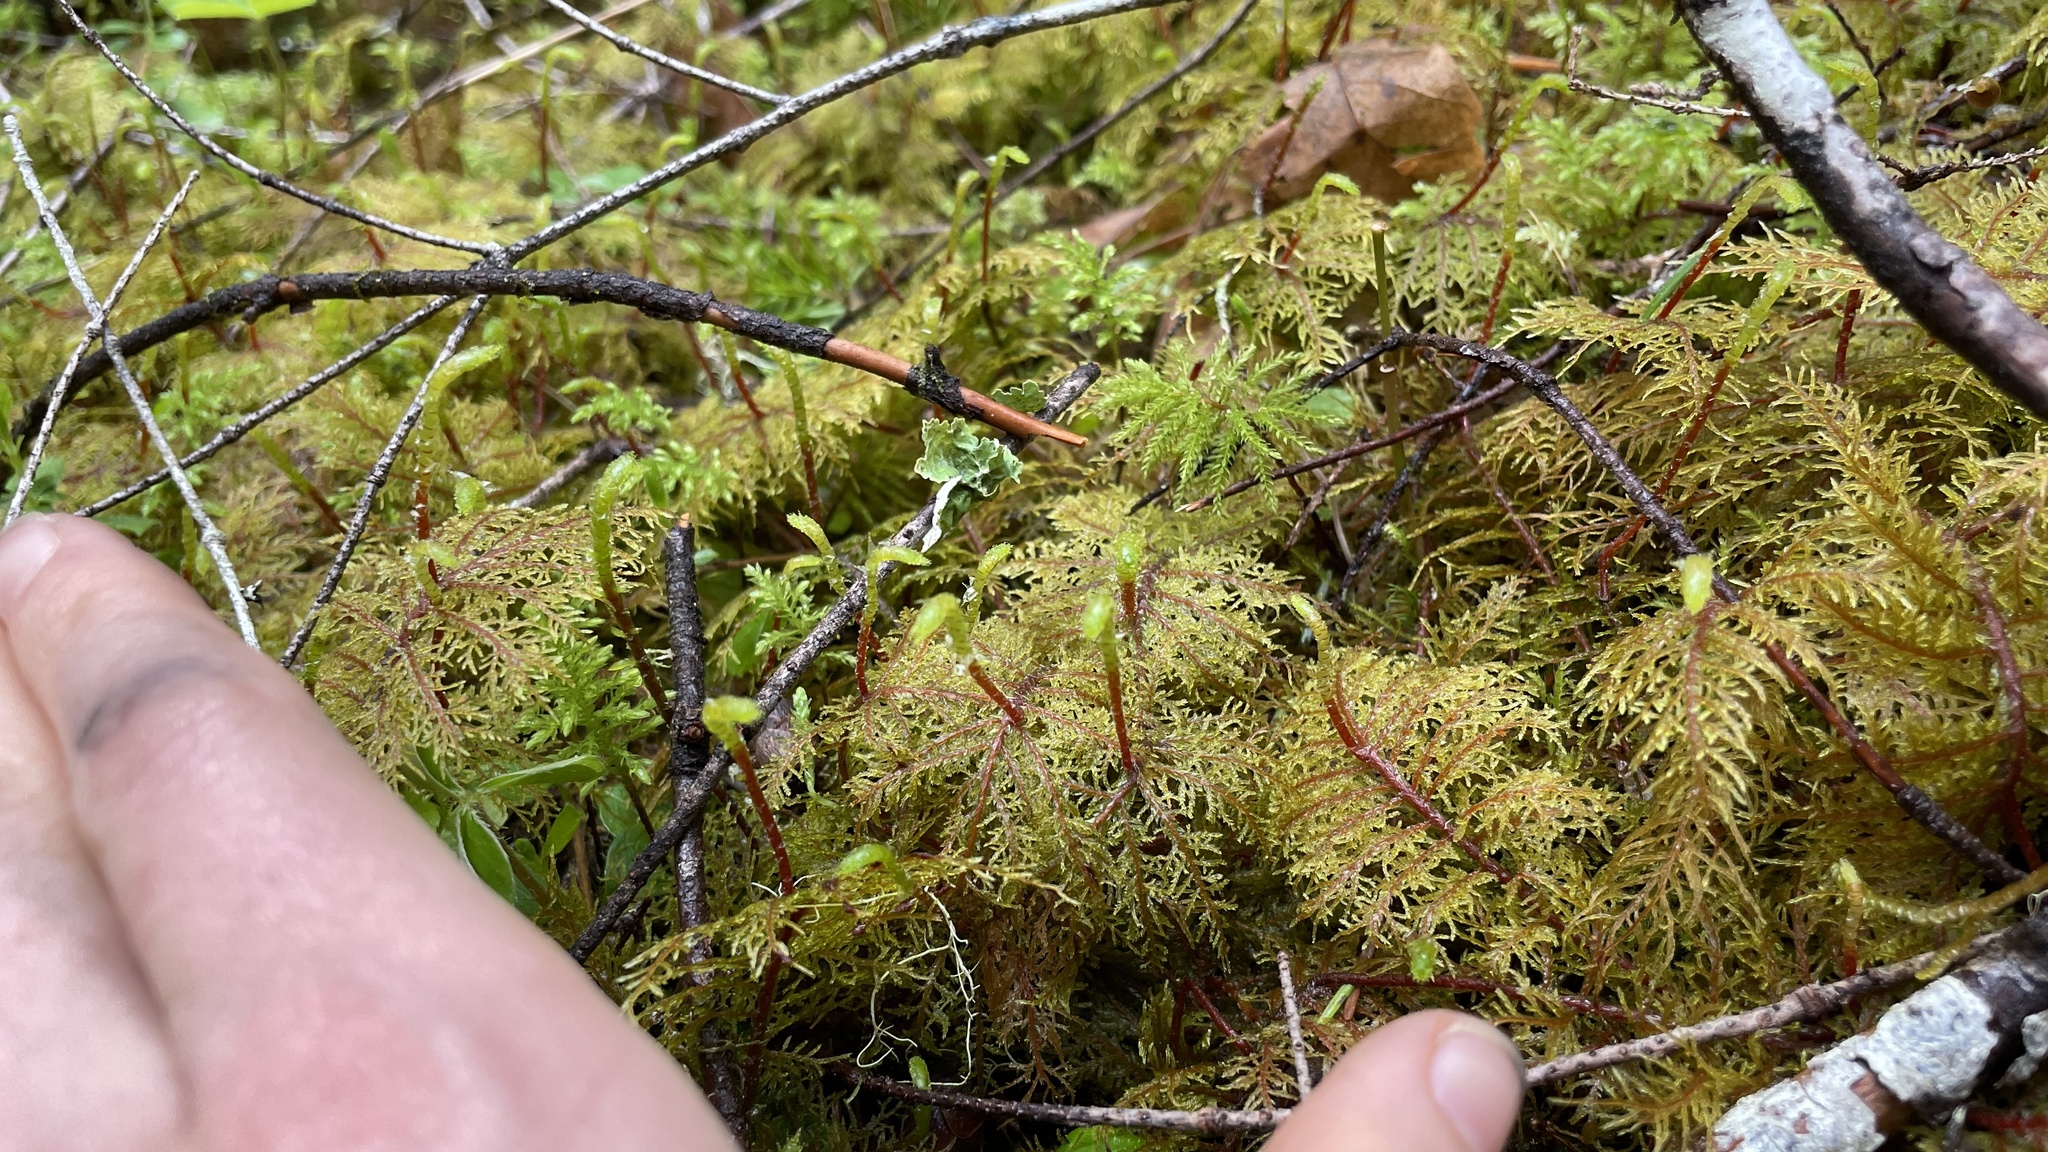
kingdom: Plantae
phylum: Bryophyta
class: Bryopsida
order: Hypnales
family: Hylocomiaceae
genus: Hylocomium
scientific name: Hylocomium splendens
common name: Stairstep moss
